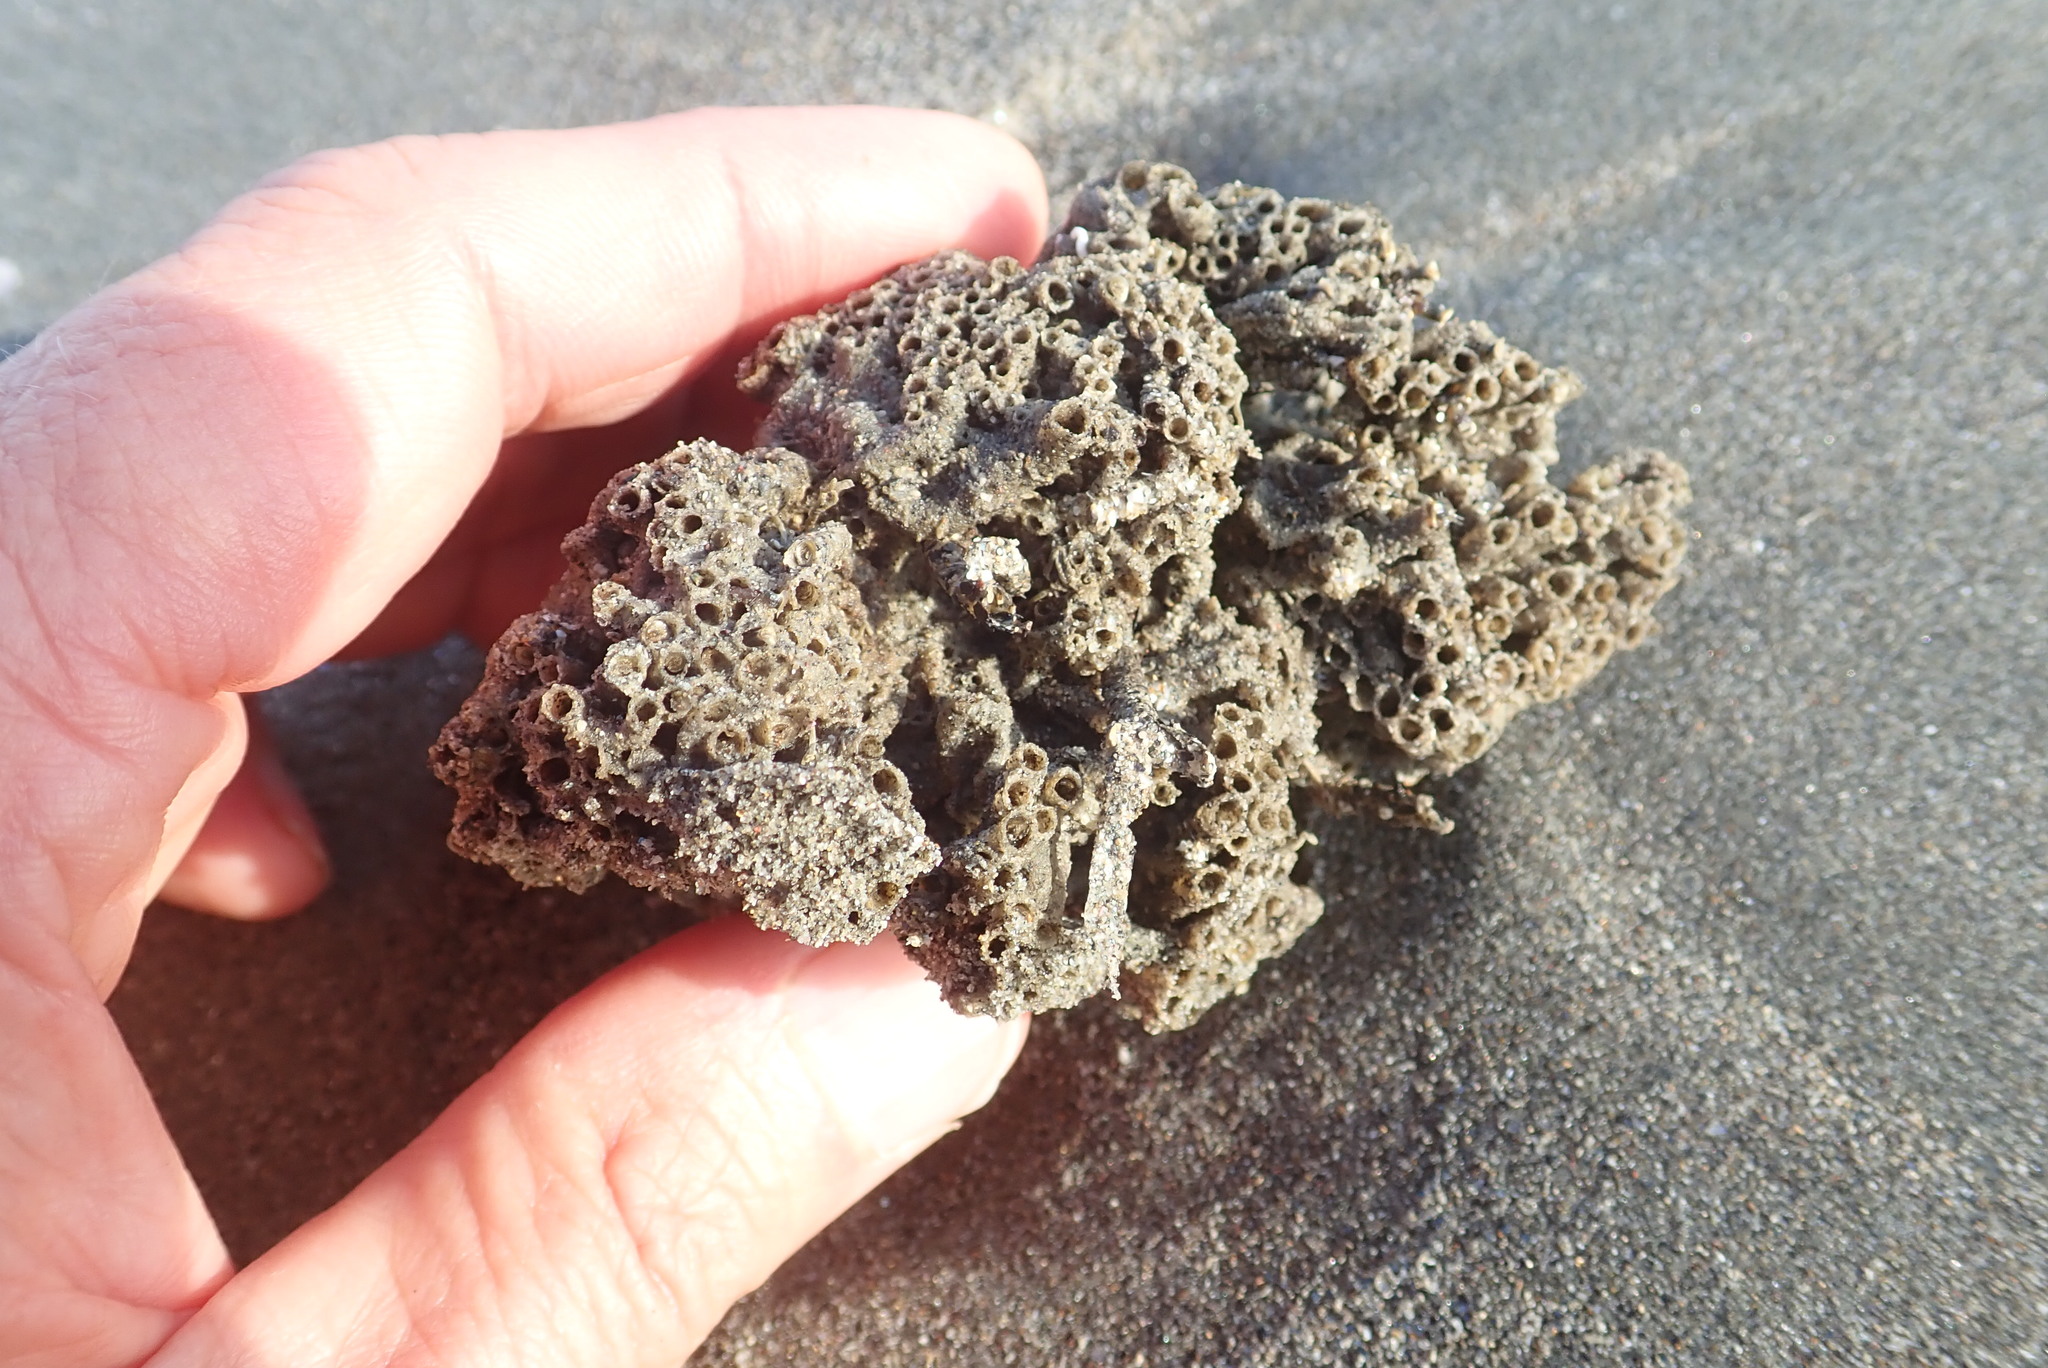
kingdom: Animalia
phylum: Annelida
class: Polychaeta
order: Sabellida
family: Sabellariidae
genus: Neosabellaria
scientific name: Neosabellaria kaiparaensis
